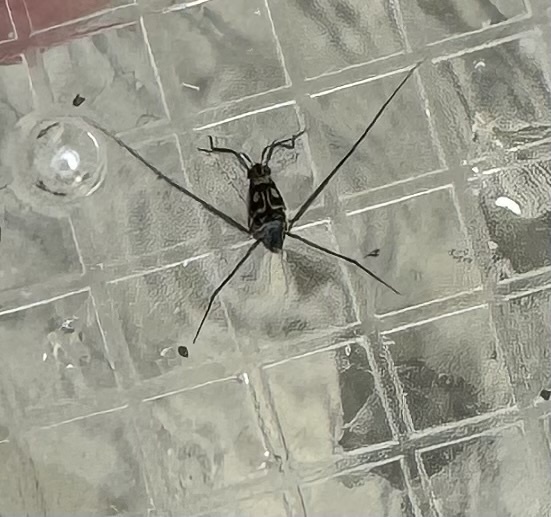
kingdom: Animalia
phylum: Arthropoda
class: Insecta
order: Hemiptera
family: Gerridae
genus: Trepobates
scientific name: Trepobates
